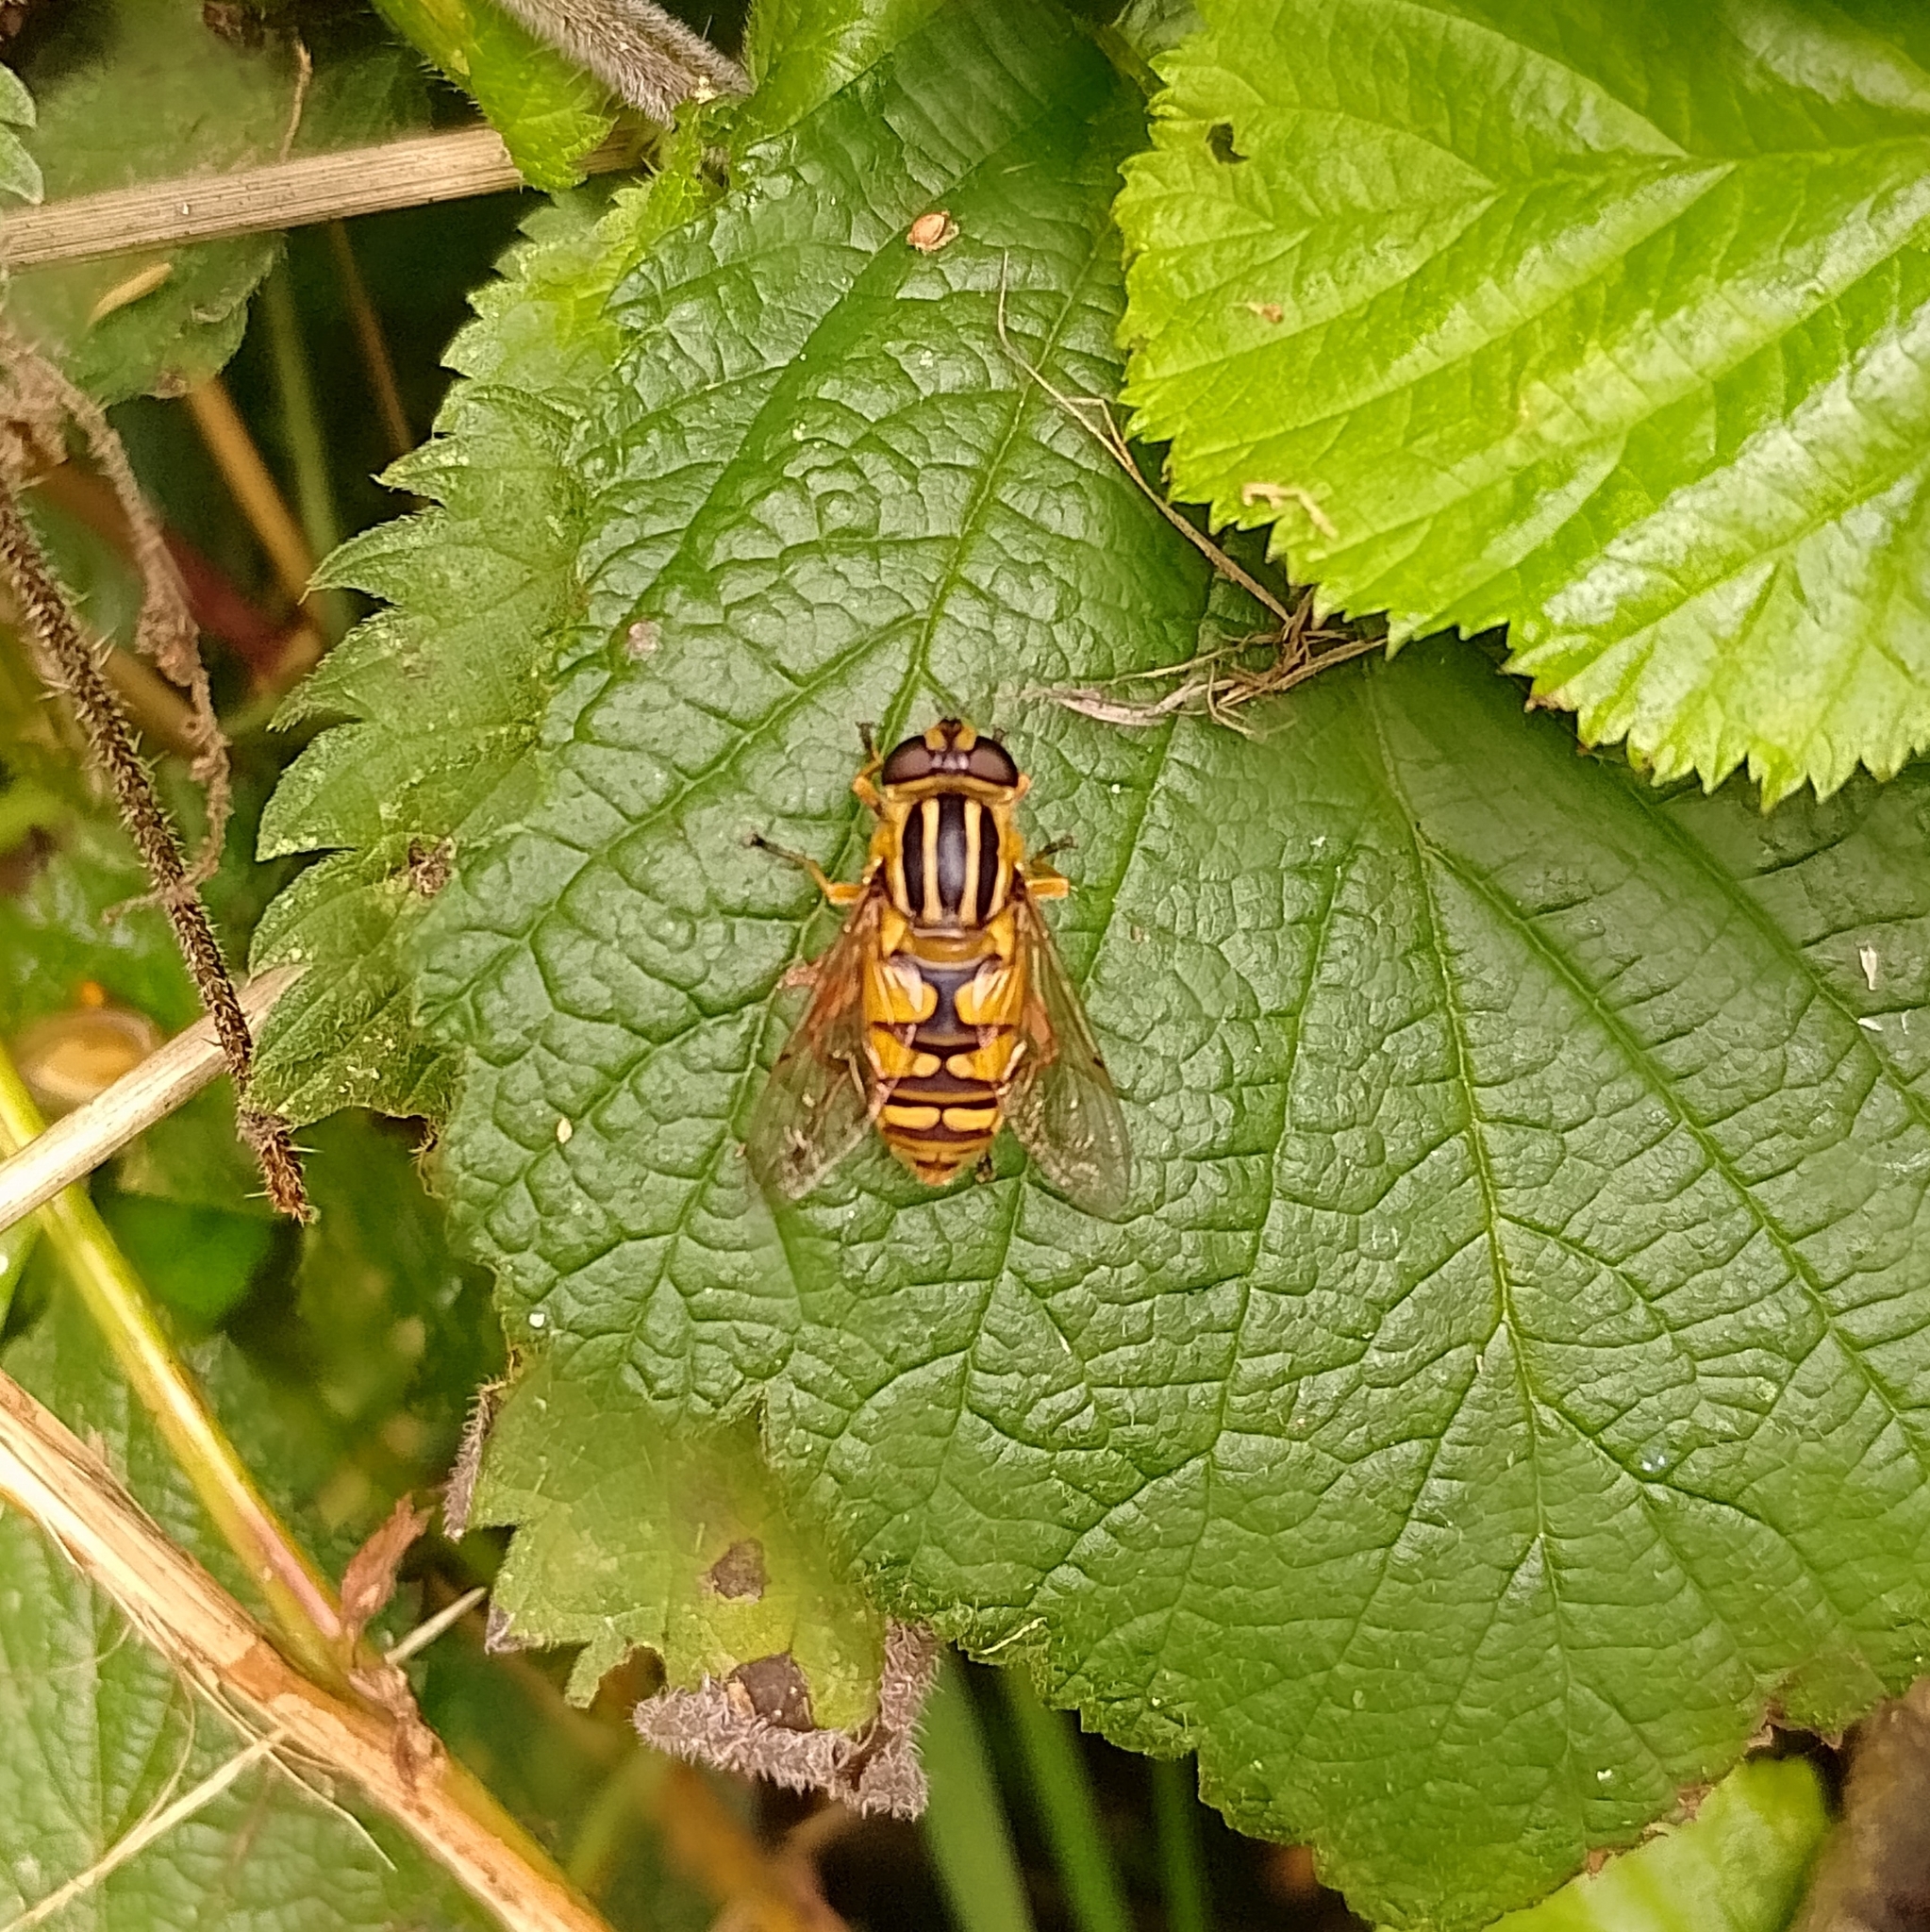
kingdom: Animalia
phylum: Arthropoda
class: Insecta
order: Diptera
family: Syrphidae
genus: Helophilus
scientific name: Helophilus pendulus
